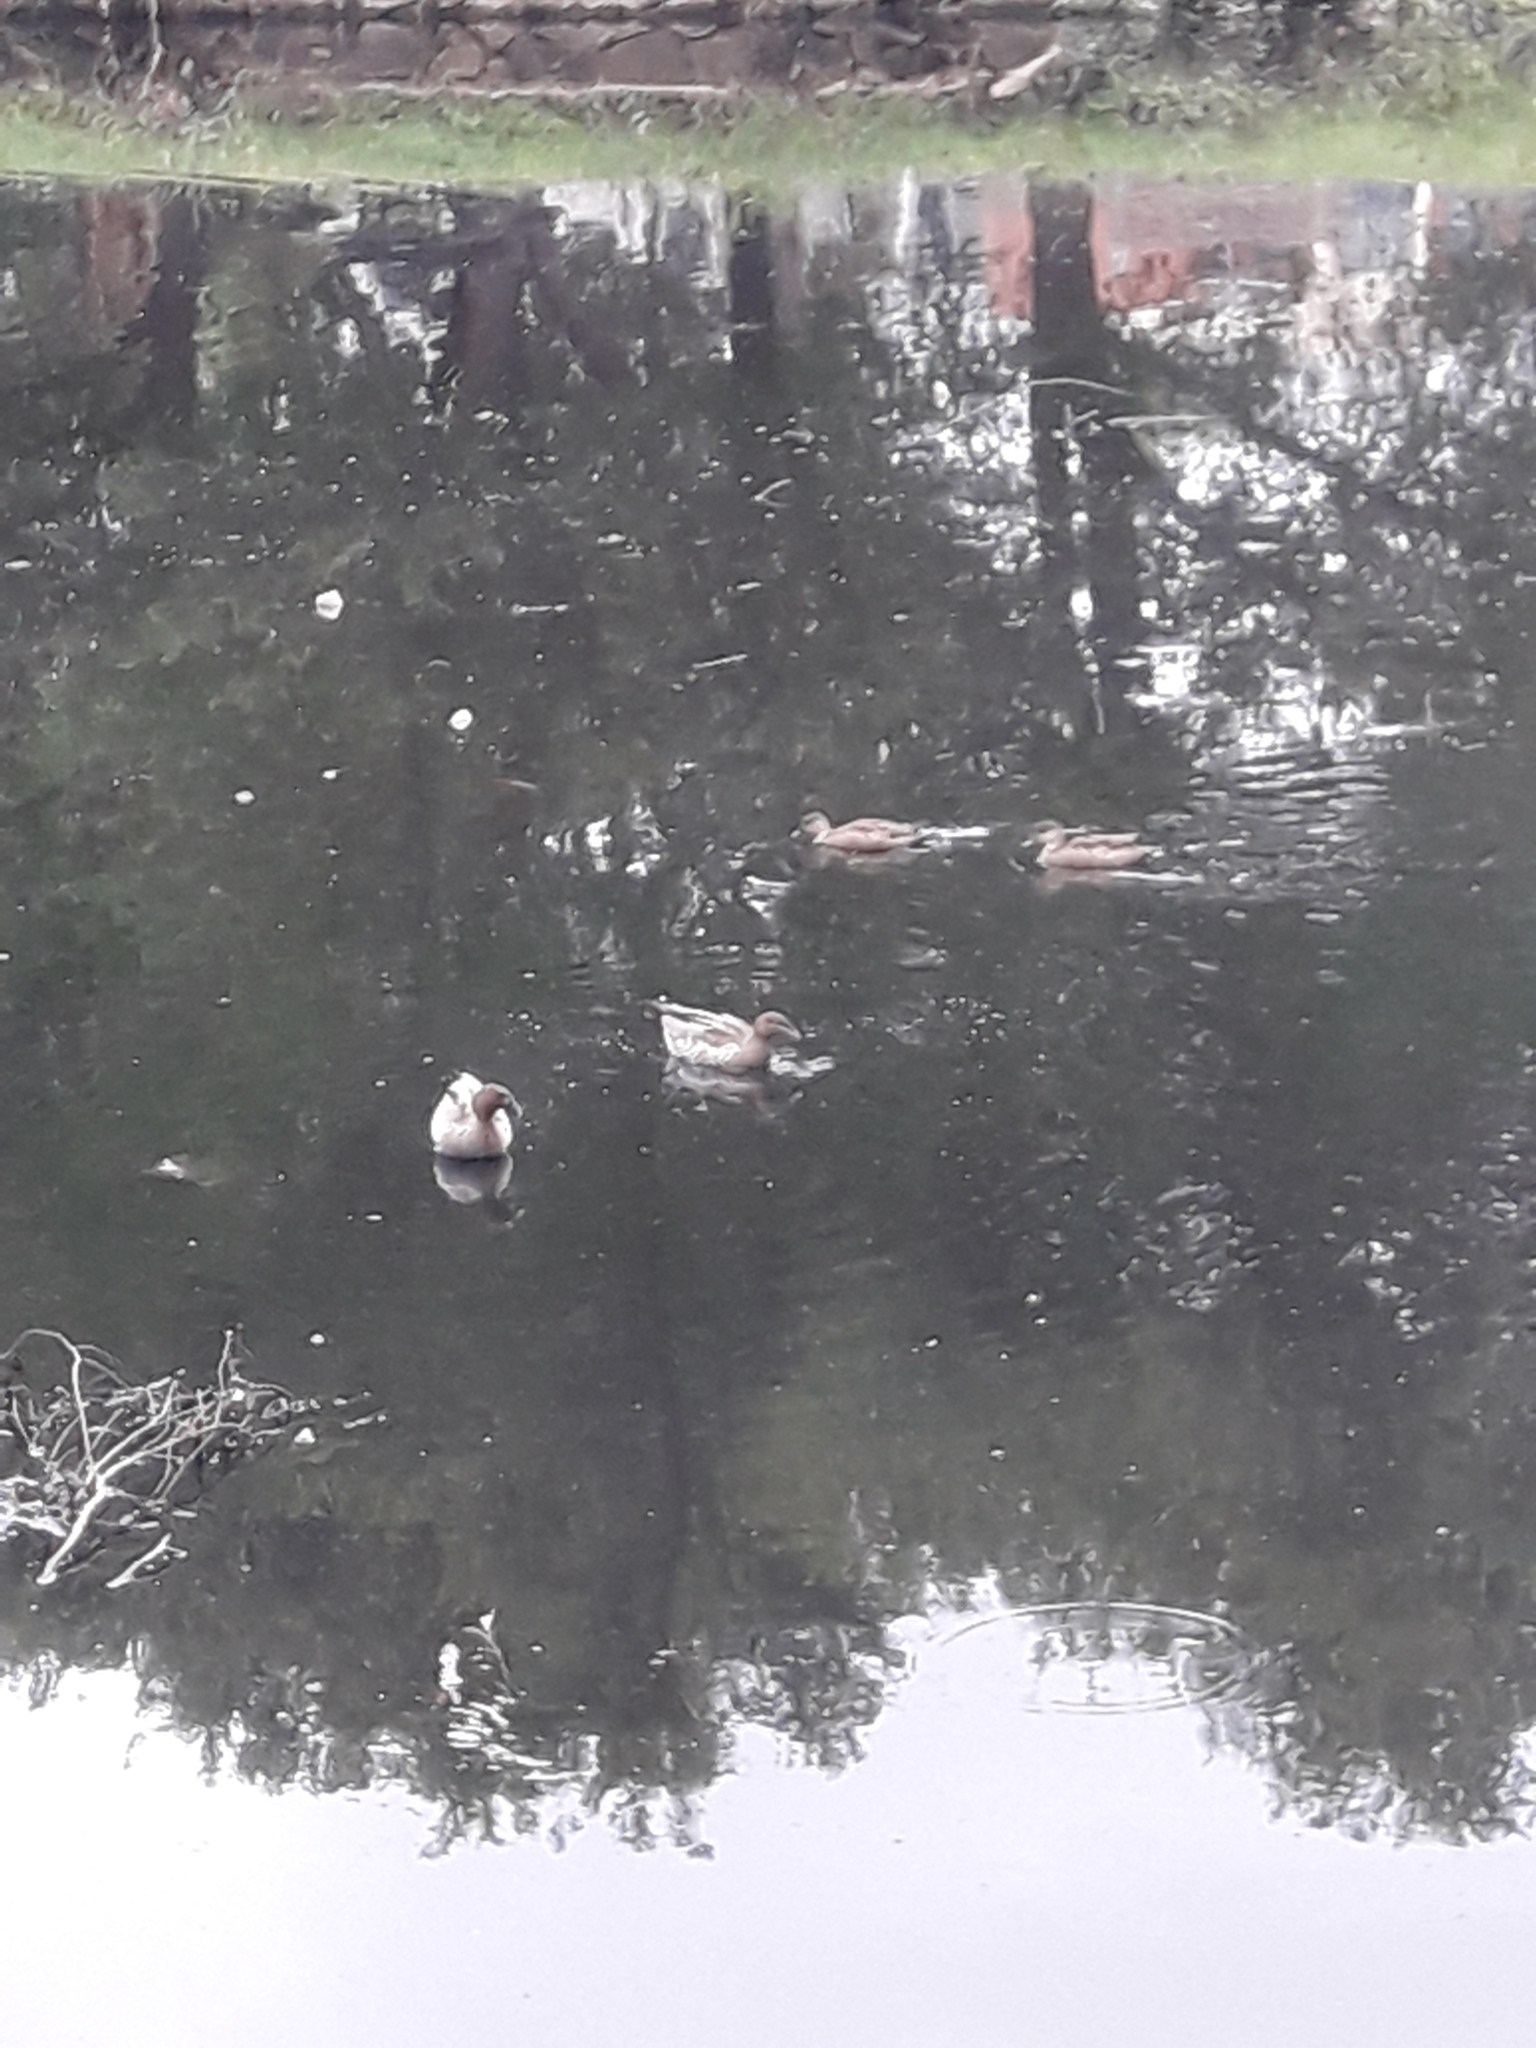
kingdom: Animalia
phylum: Chordata
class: Aves
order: Anseriformes
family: Anatidae
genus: Chenonetta
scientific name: Chenonetta jubata
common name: Maned duck
